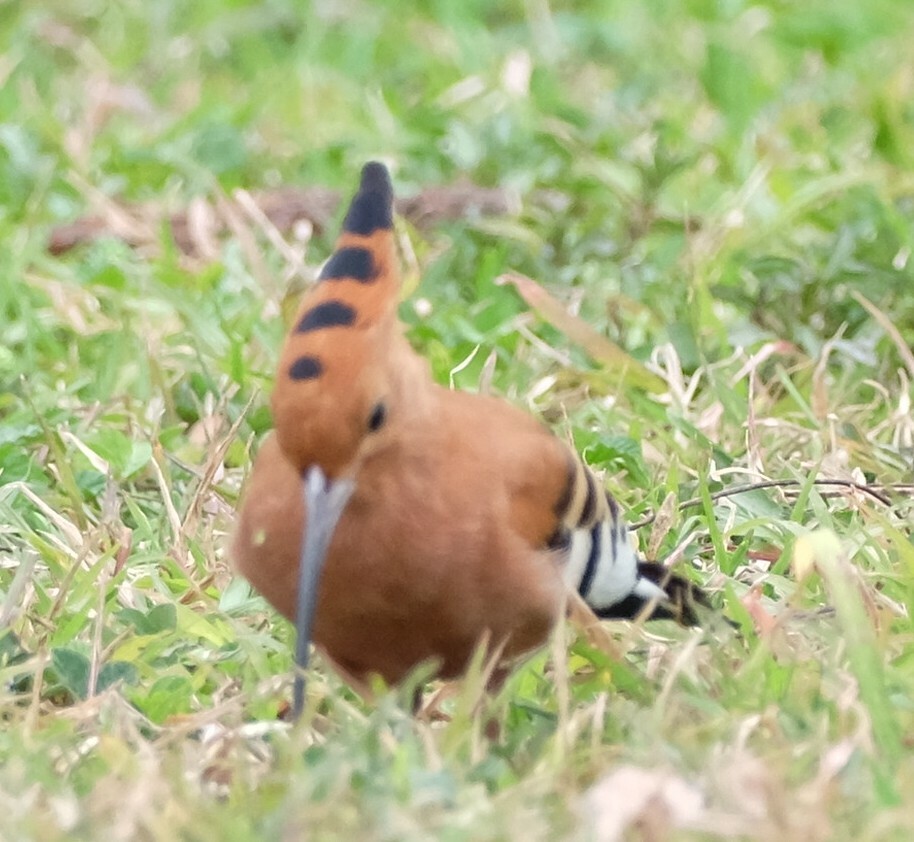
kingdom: Animalia
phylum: Chordata
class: Aves
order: Bucerotiformes
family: Upupidae
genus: Upupa
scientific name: Upupa africana
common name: African hoopoe
